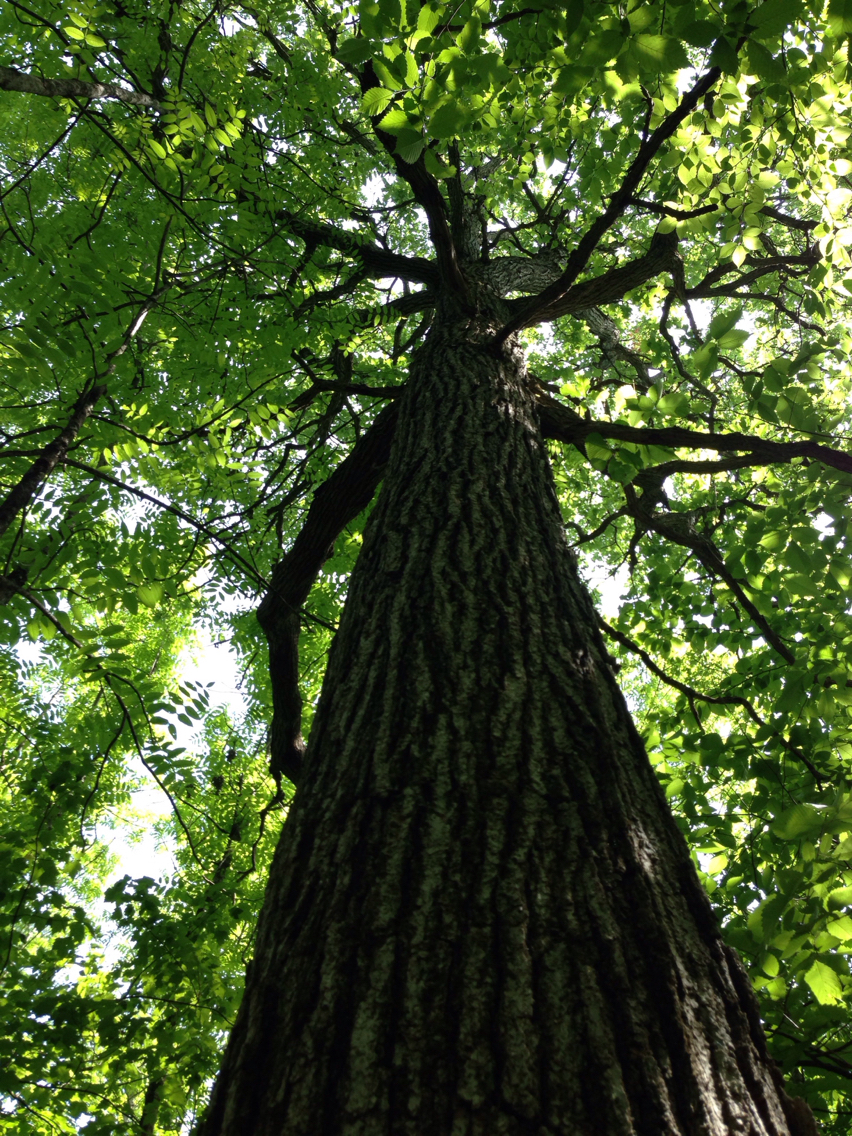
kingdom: Plantae
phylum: Tracheophyta
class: Magnoliopsida
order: Fagales
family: Fagaceae
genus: Quercus
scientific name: Quercus macrocarpa
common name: Bur oak
